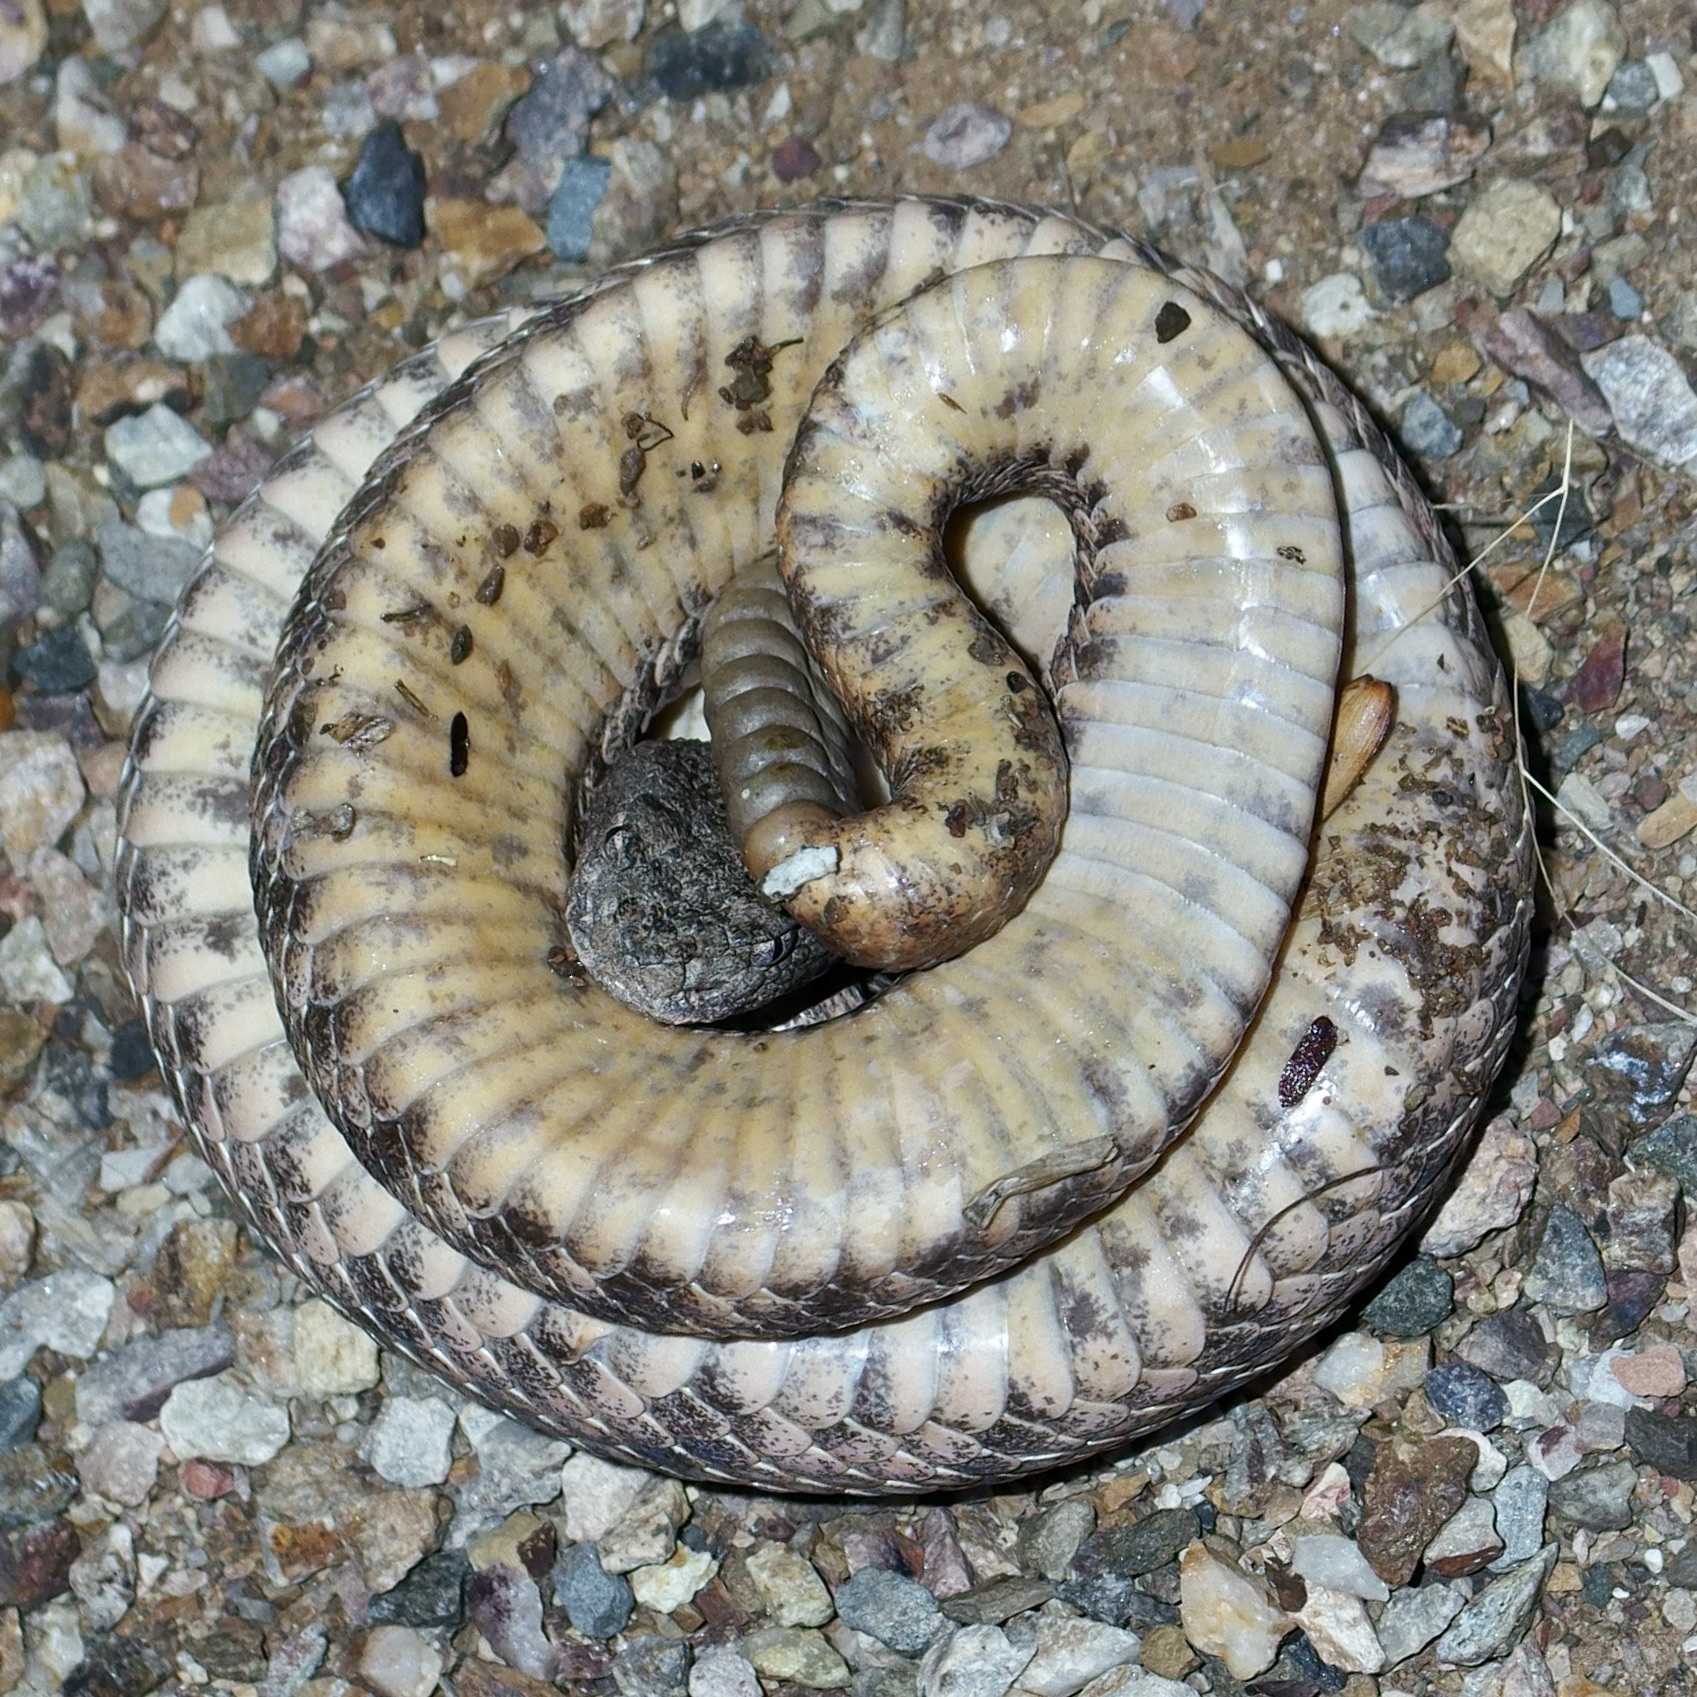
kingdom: Animalia
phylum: Chordata
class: Squamata
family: Viperidae
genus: Crotalus
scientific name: Crotalus tigris
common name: Tiger rattlesnake
